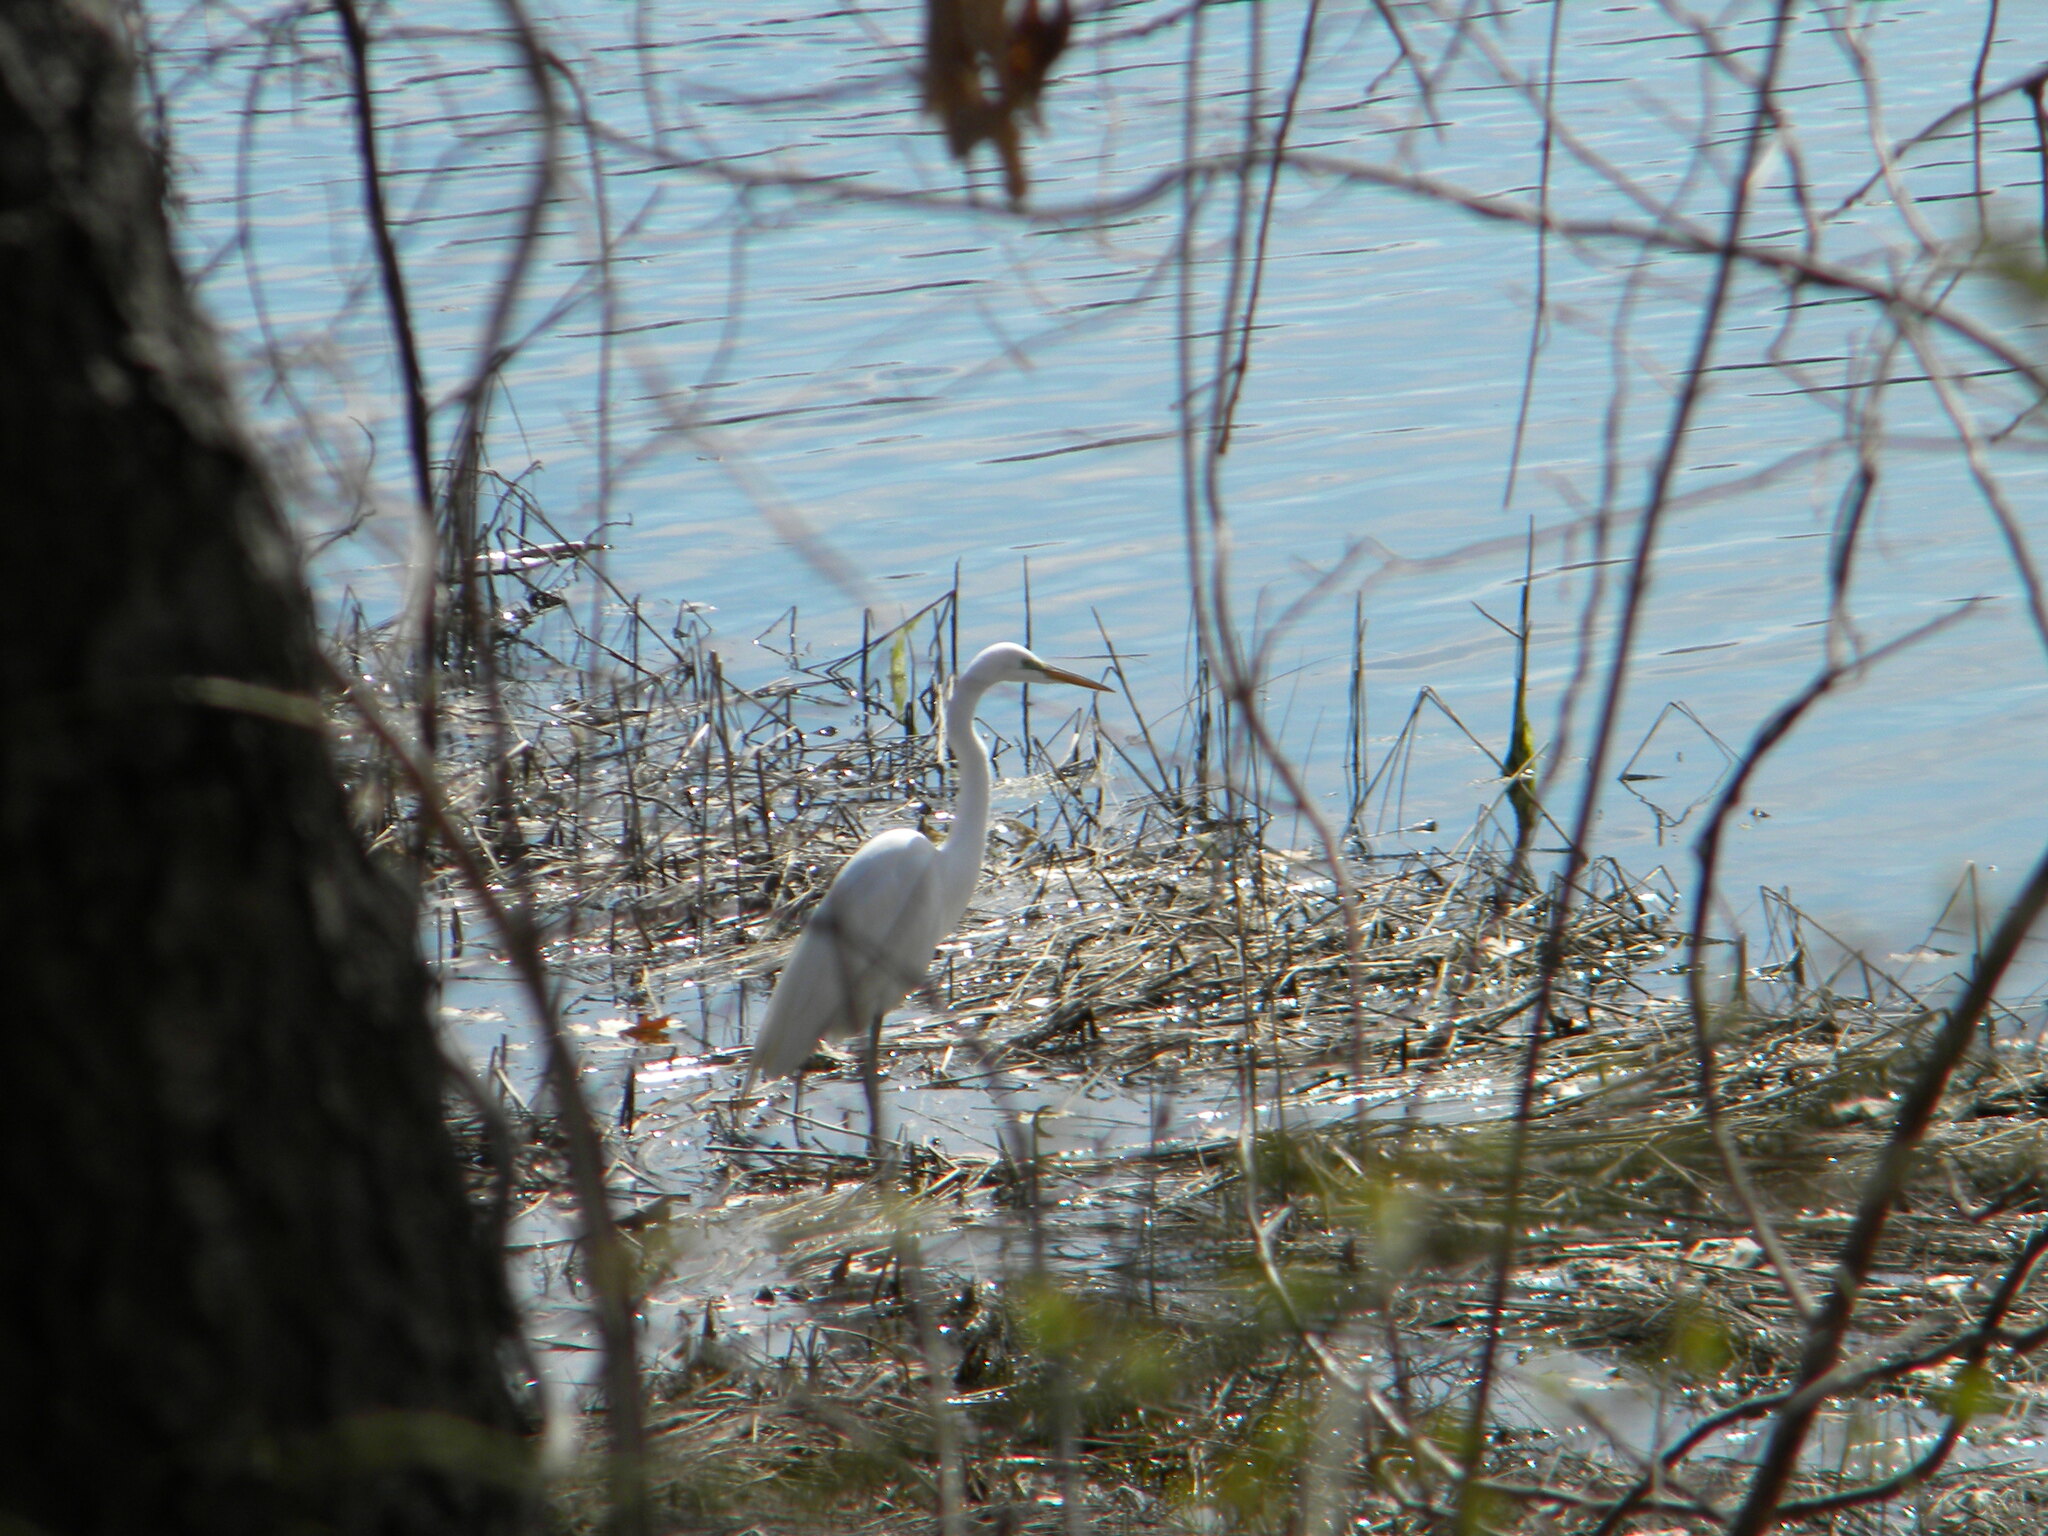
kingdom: Animalia
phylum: Chordata
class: Aves
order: Pelecaniformes
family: Ardeidae
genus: Ardea
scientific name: Ardea alba
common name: Great egret
